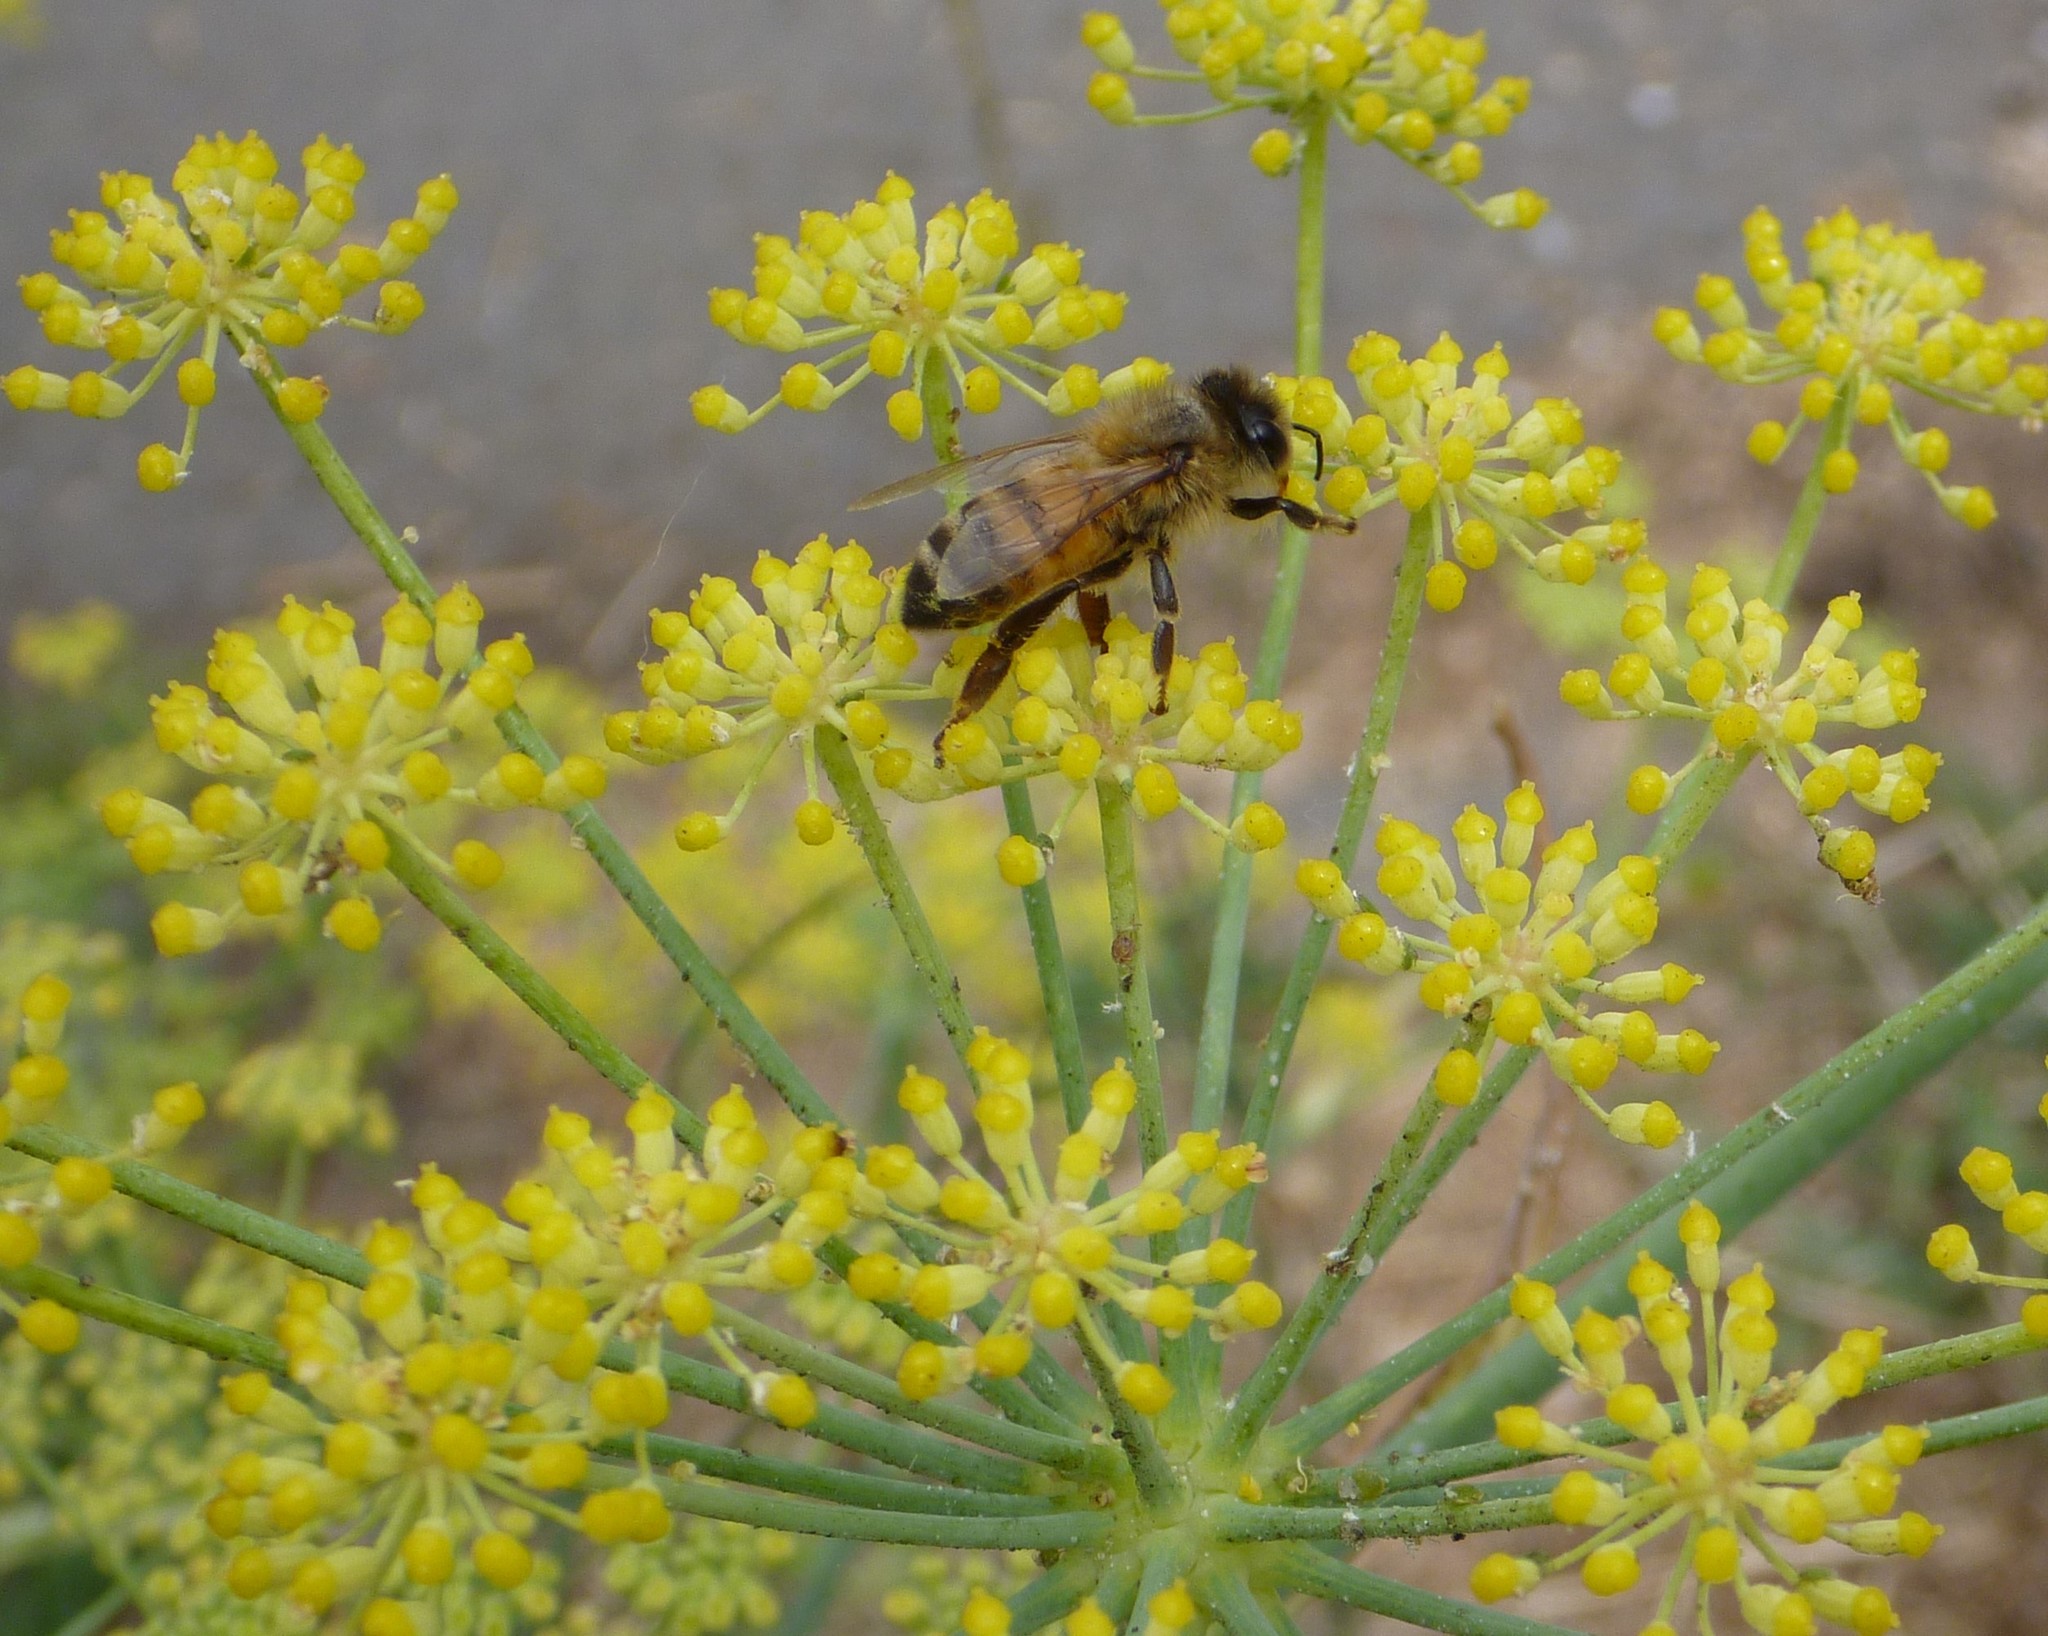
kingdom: Animalia
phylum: Arthropoda
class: Insecta
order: Hymenoptera
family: Apidae
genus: Apis
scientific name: Apis mellifera
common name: Honey bee
